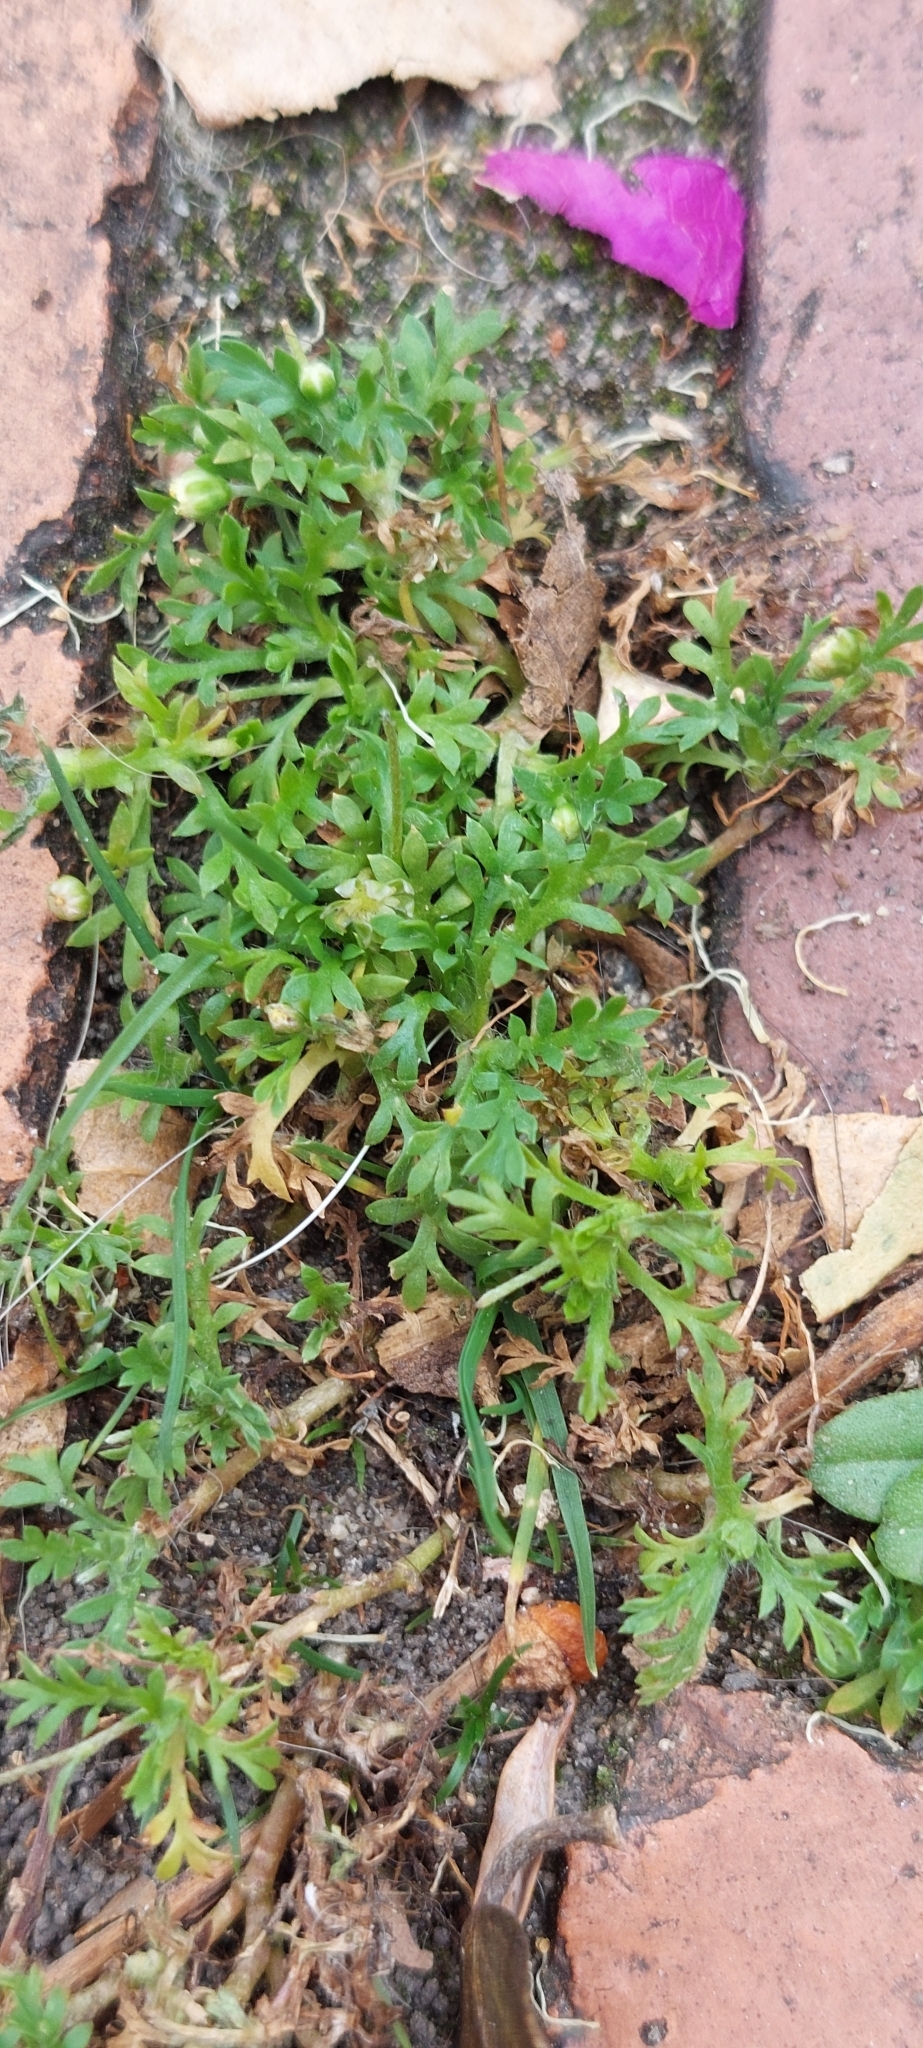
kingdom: Plantae
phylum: Tracheophyta
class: Magnoliopsida
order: Asterales
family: Asteraceae
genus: Cotula
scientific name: Cotula australis
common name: Australian waterbuttons
